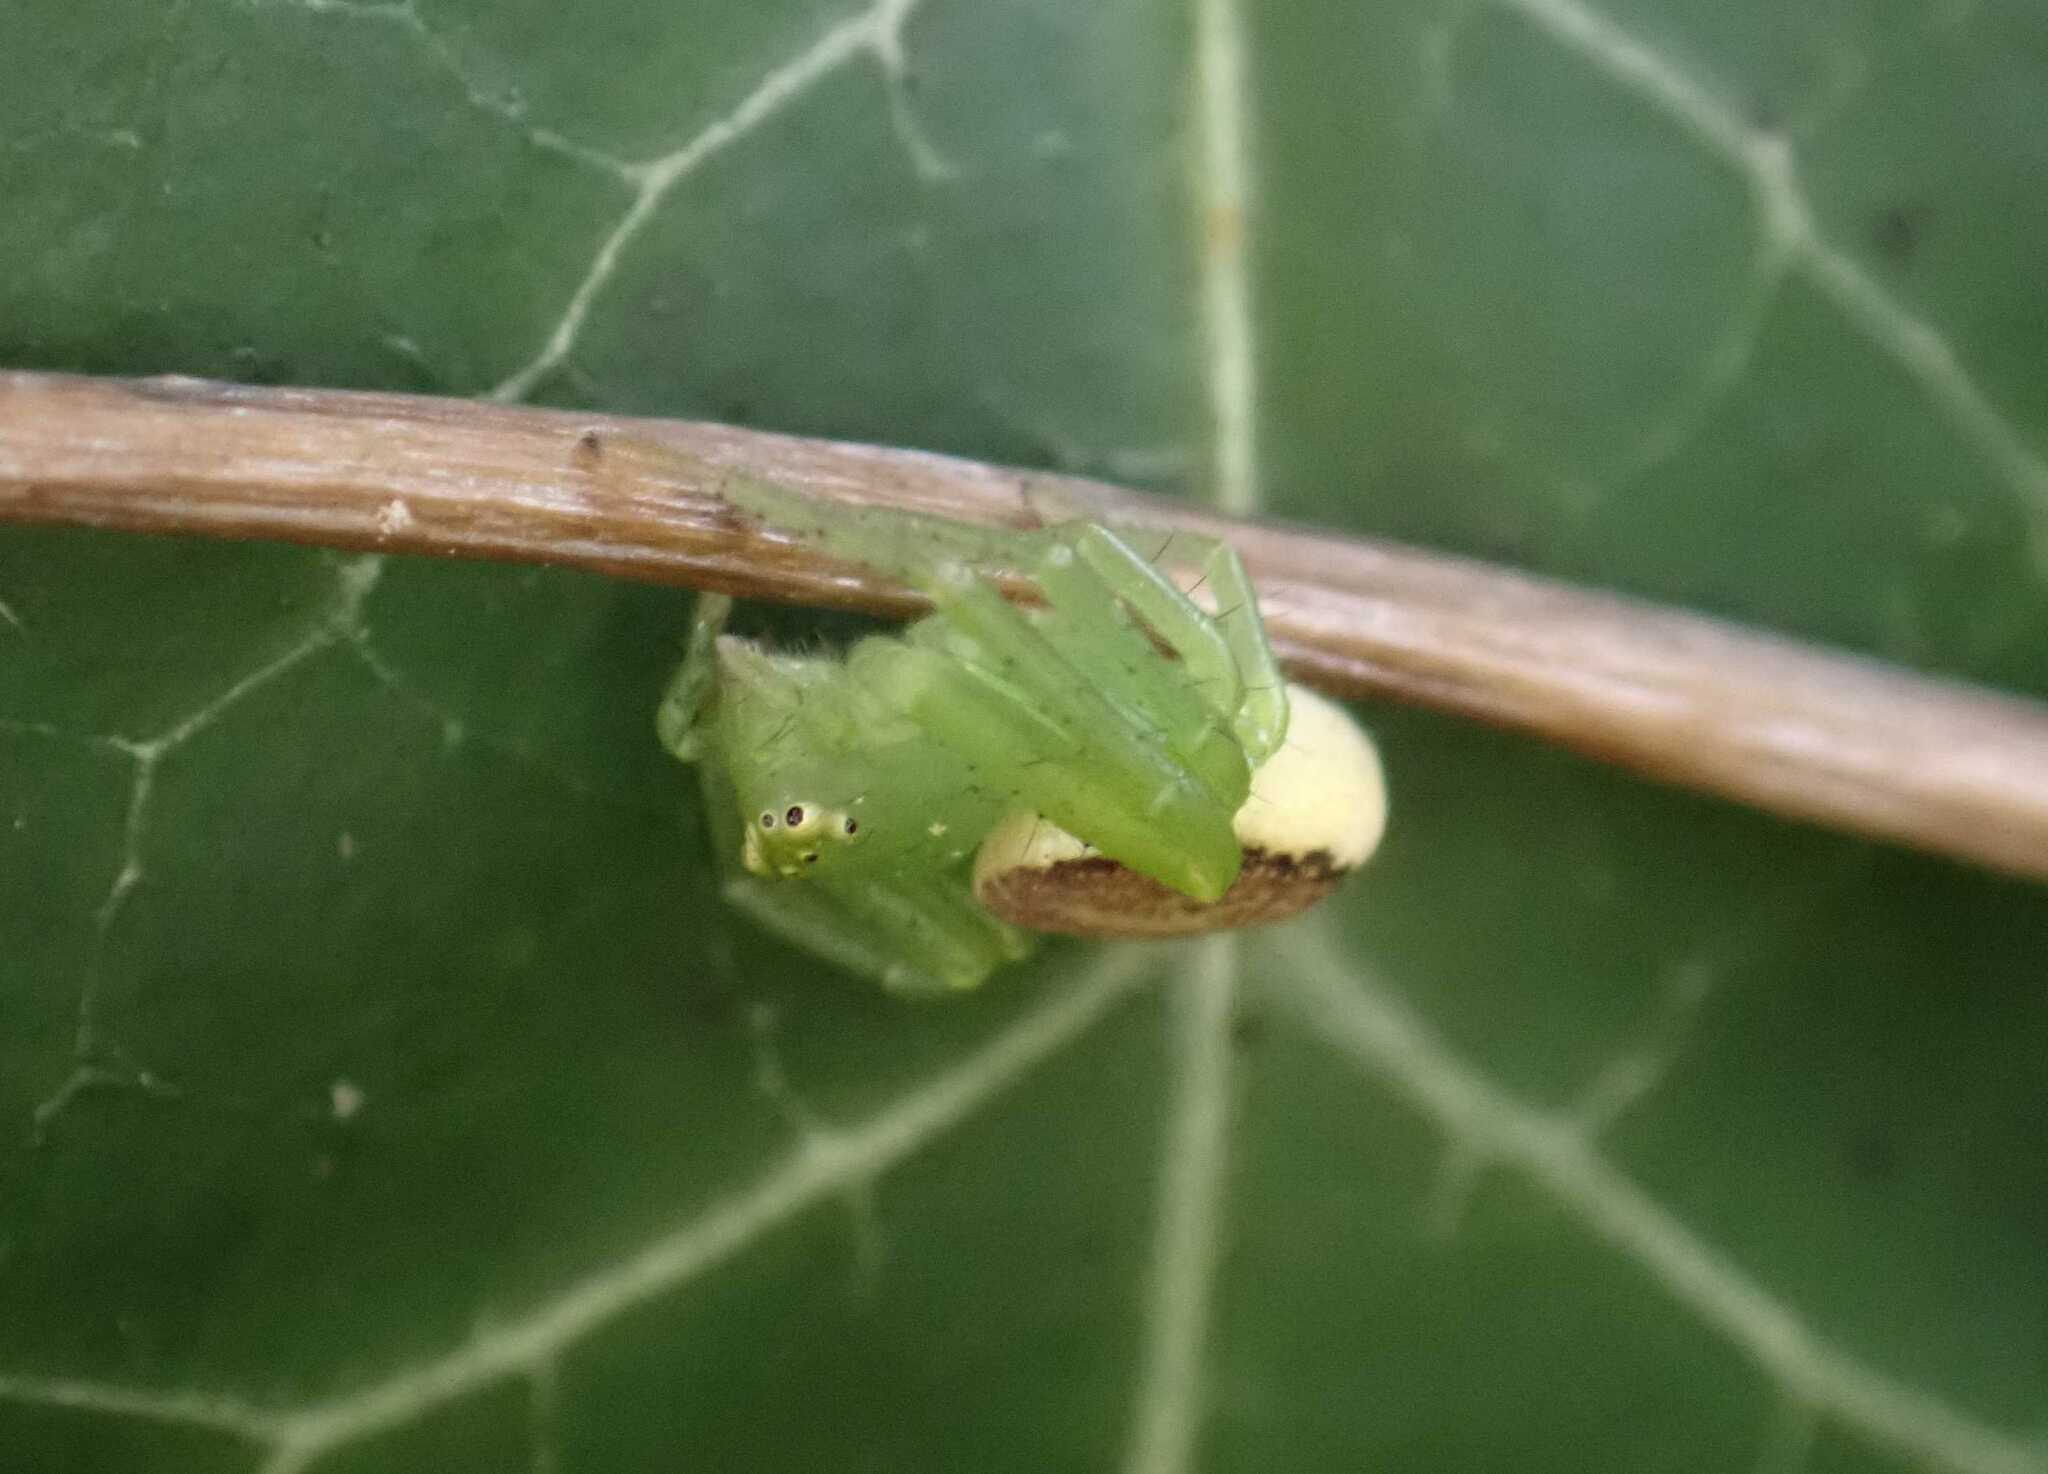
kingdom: Animalia
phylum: Arthropoda
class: Arachnida
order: Araneae
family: Thomisidae
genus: Diaea
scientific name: Diaea dorsata
